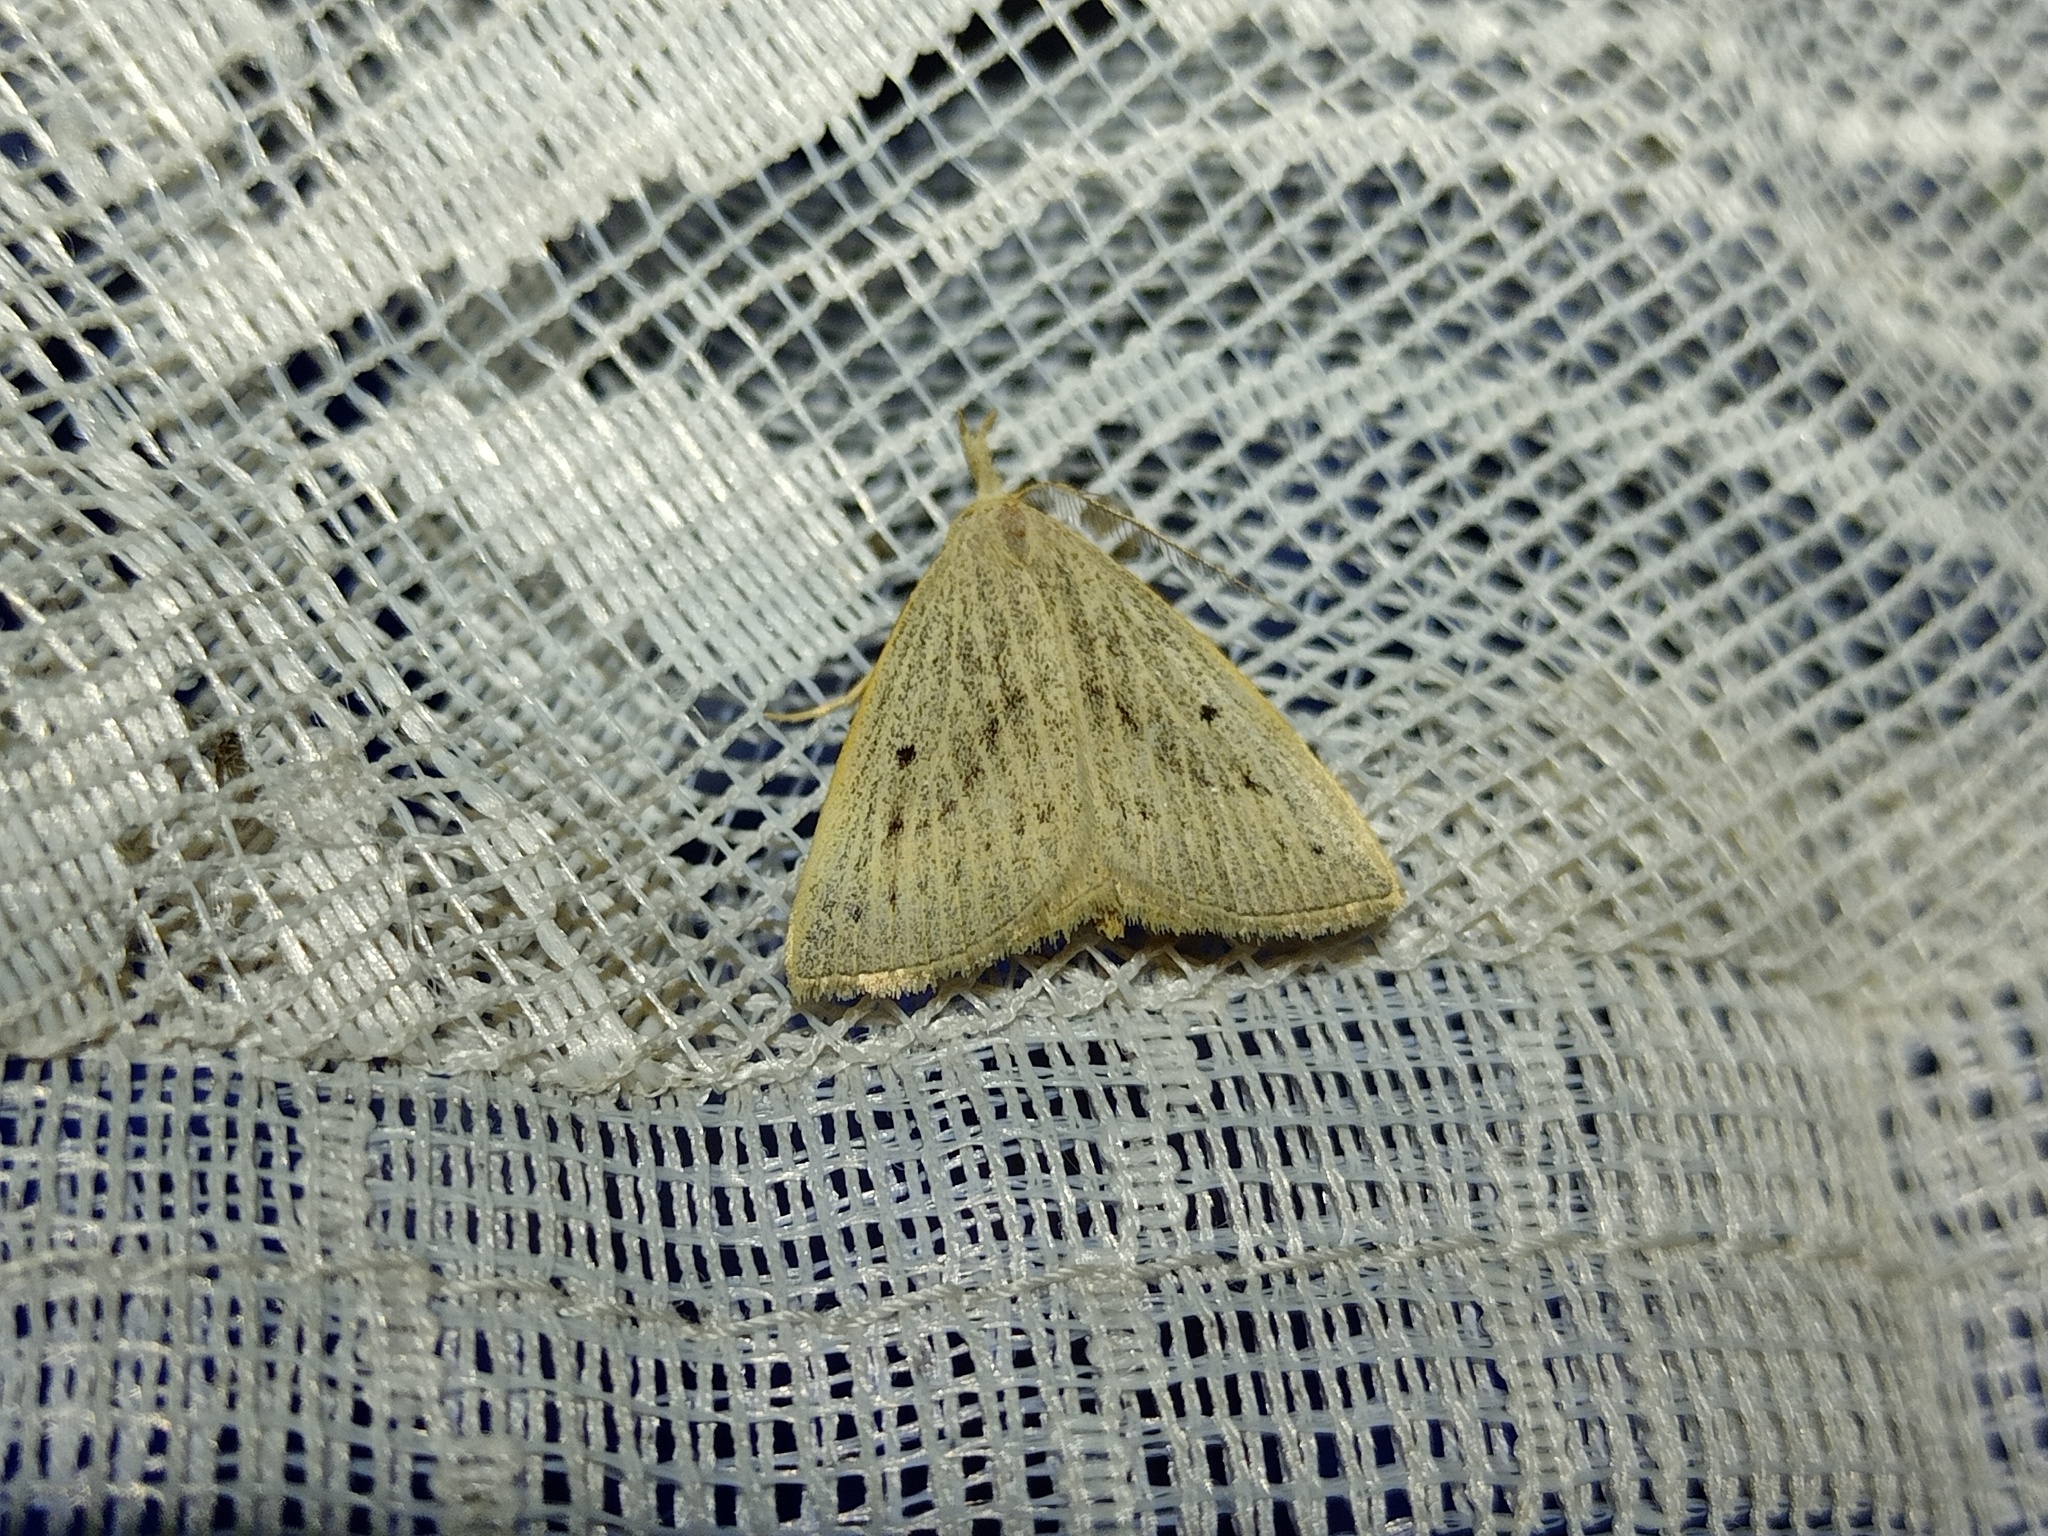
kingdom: Animalia
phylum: Arthropoda
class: Insecta
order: Lepidoptera
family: Erebidae
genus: Macrochilo
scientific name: Macrochilo cribrumalis
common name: Dotted fan-foot
